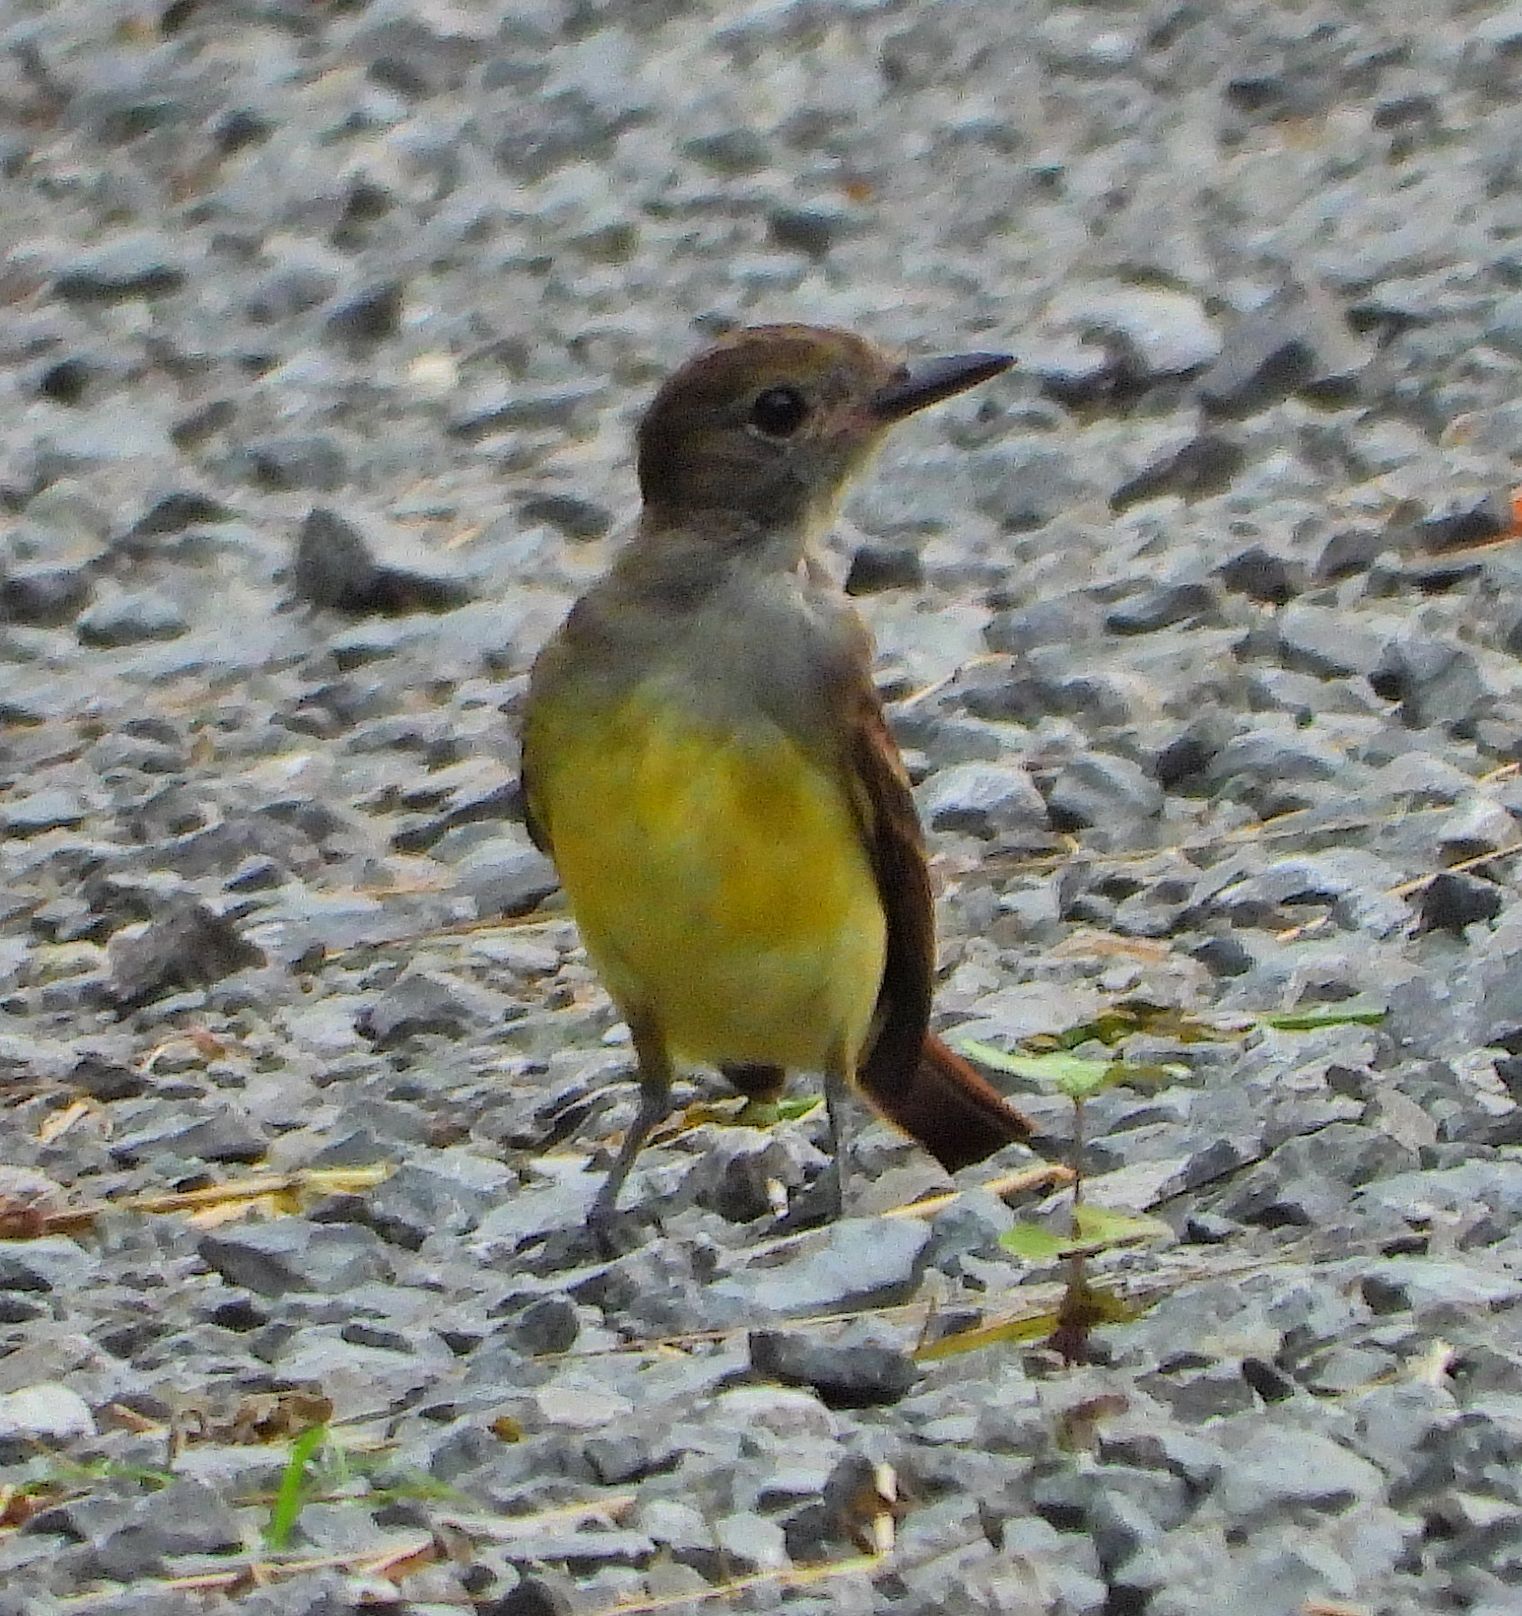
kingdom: Animalia
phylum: Chordata
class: Aves
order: Passeriformes
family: Tyrannidae
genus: Myiarchus
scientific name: Myiarchus crinitus
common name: Great crested flycatcher
